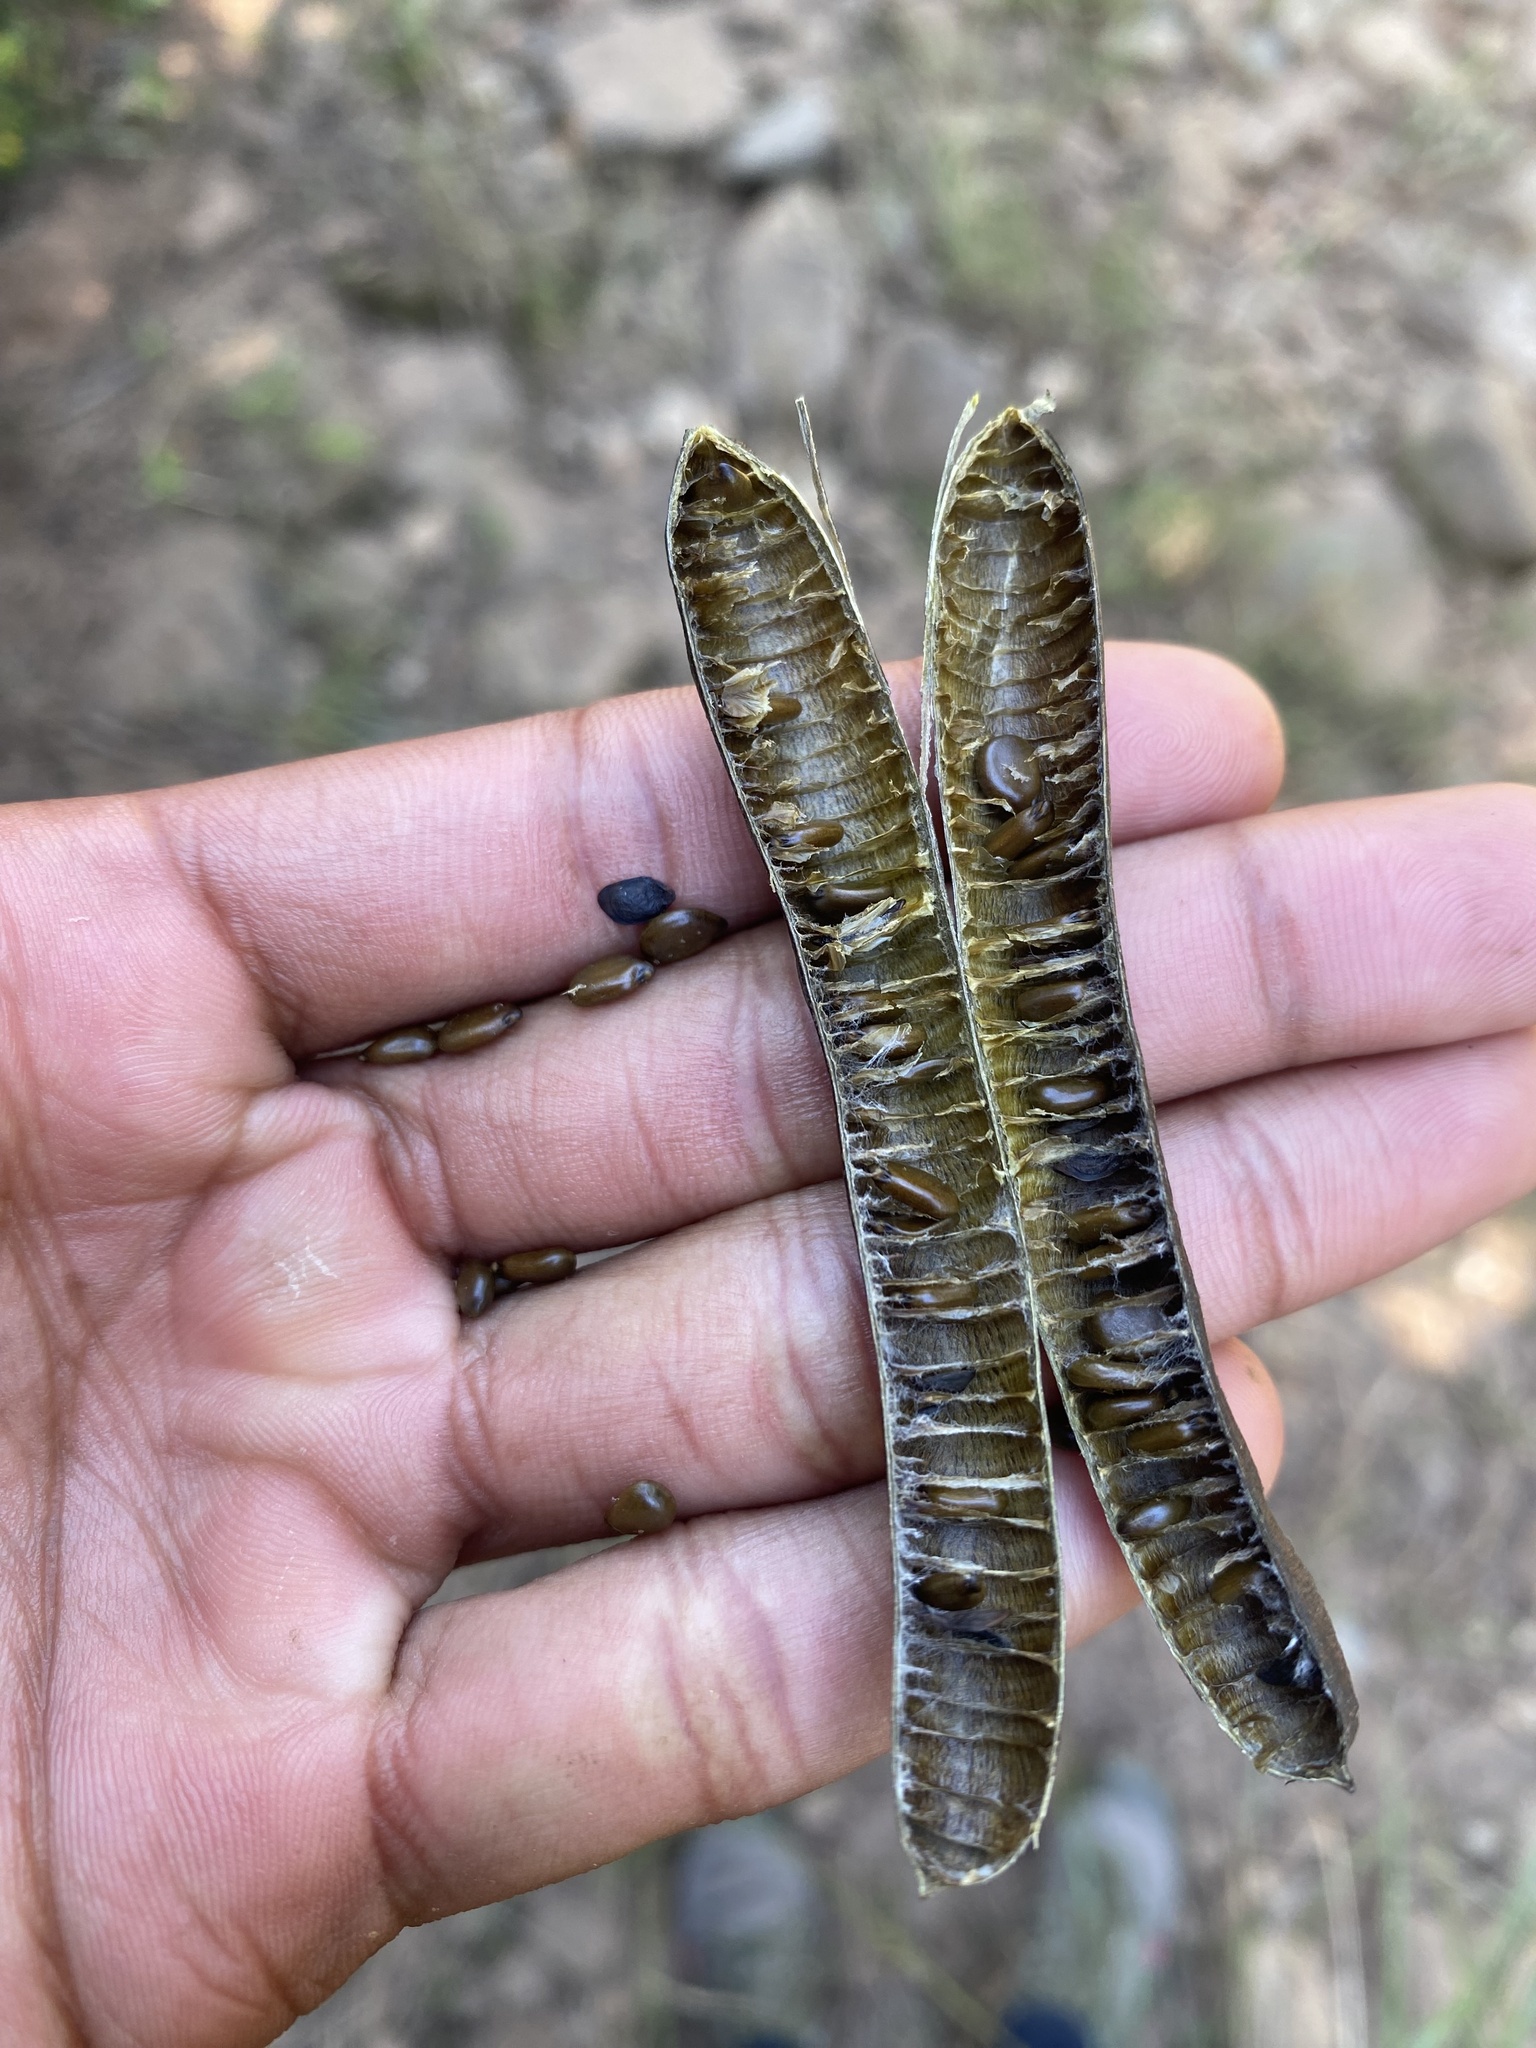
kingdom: Plantae
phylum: Tracheophyta
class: Magnoliopsida
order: Fabales
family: Fabaceae
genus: Senna
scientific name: Senna septemtrionalis
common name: Arsenic bush
